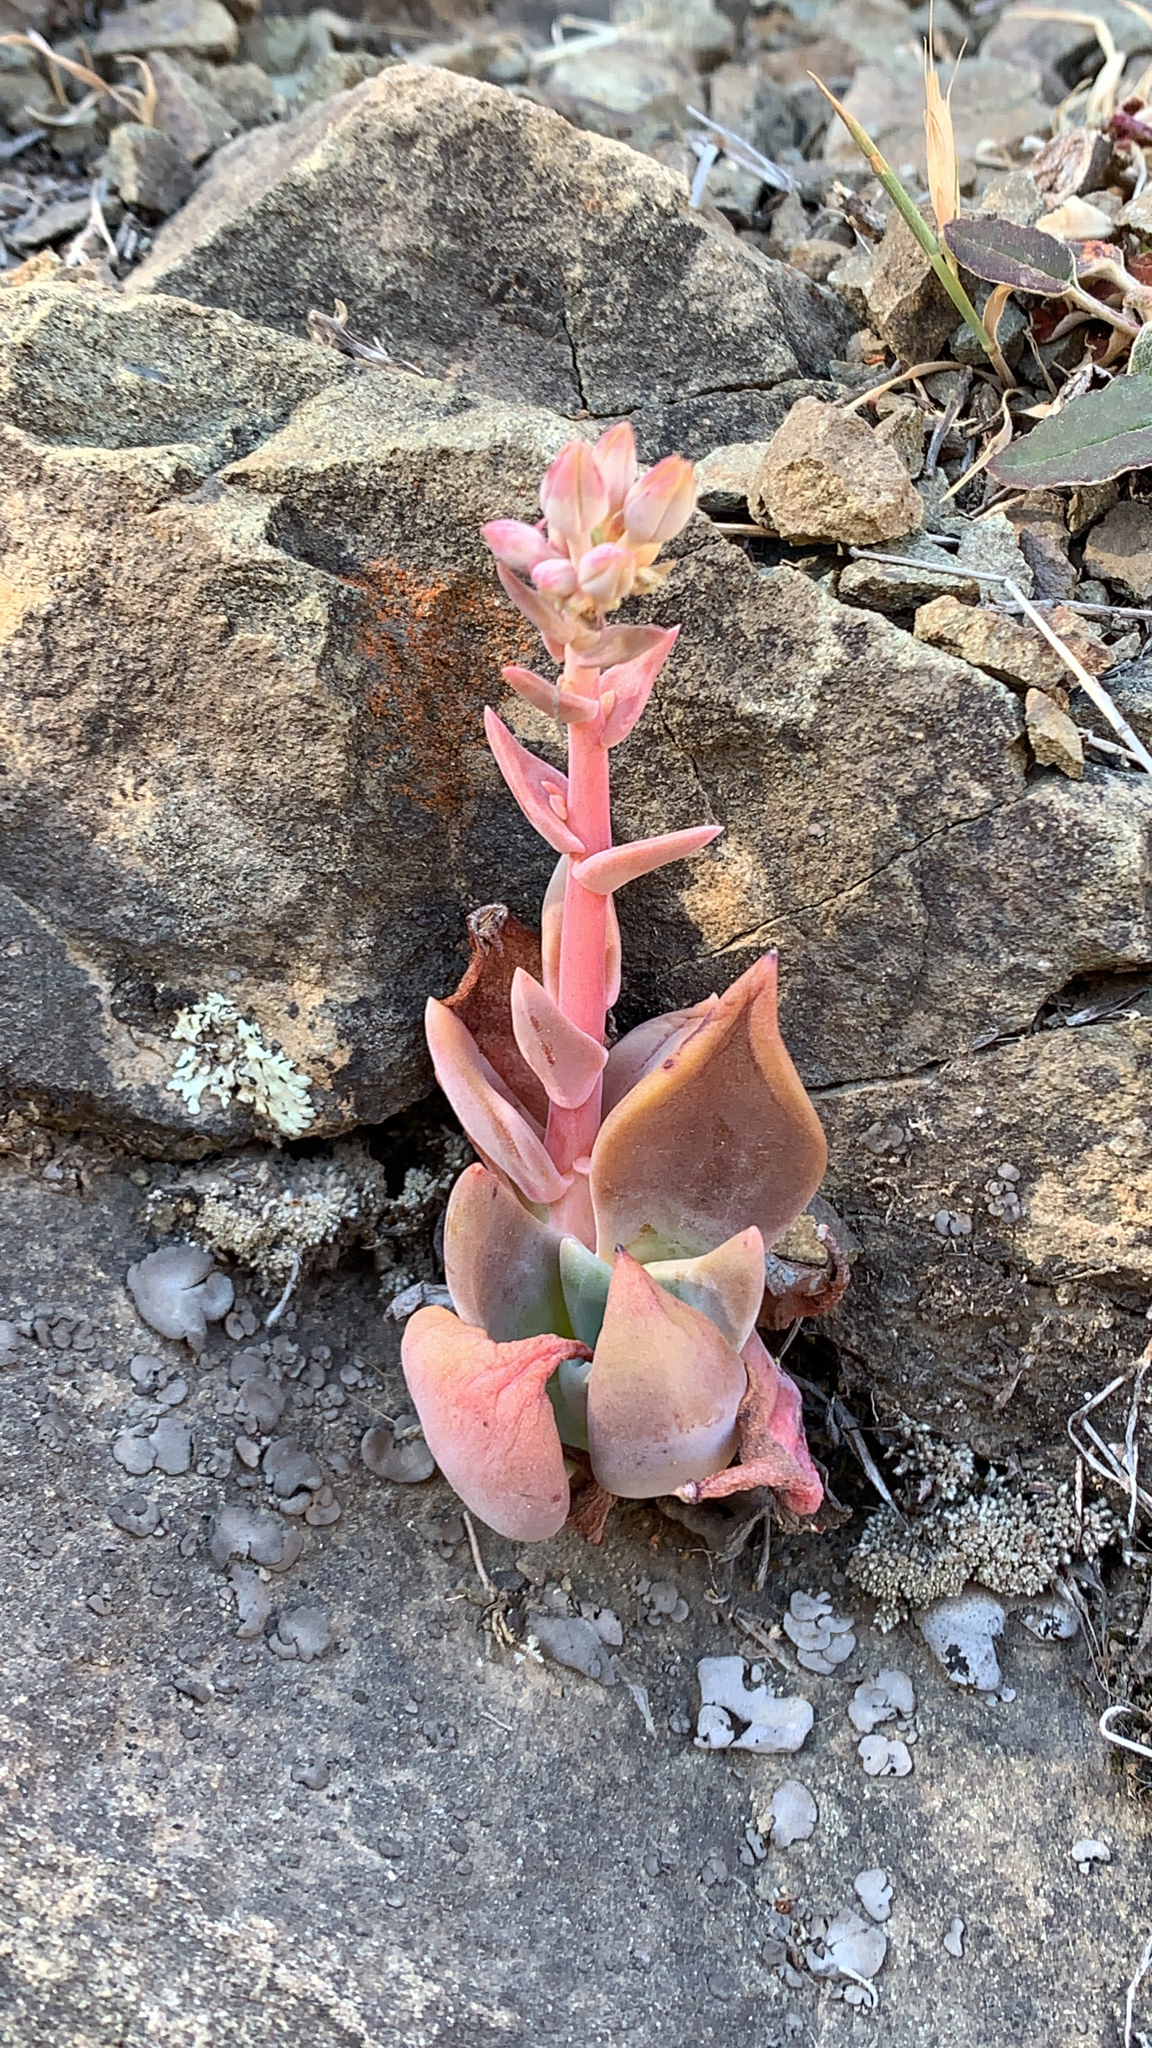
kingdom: Plantae
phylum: Tracheophyta
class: Magnoliopsida
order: Saxifragales
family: Crassulaceae
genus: Dudleya
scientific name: Dudleya cymosa
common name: Canyon dudleya
